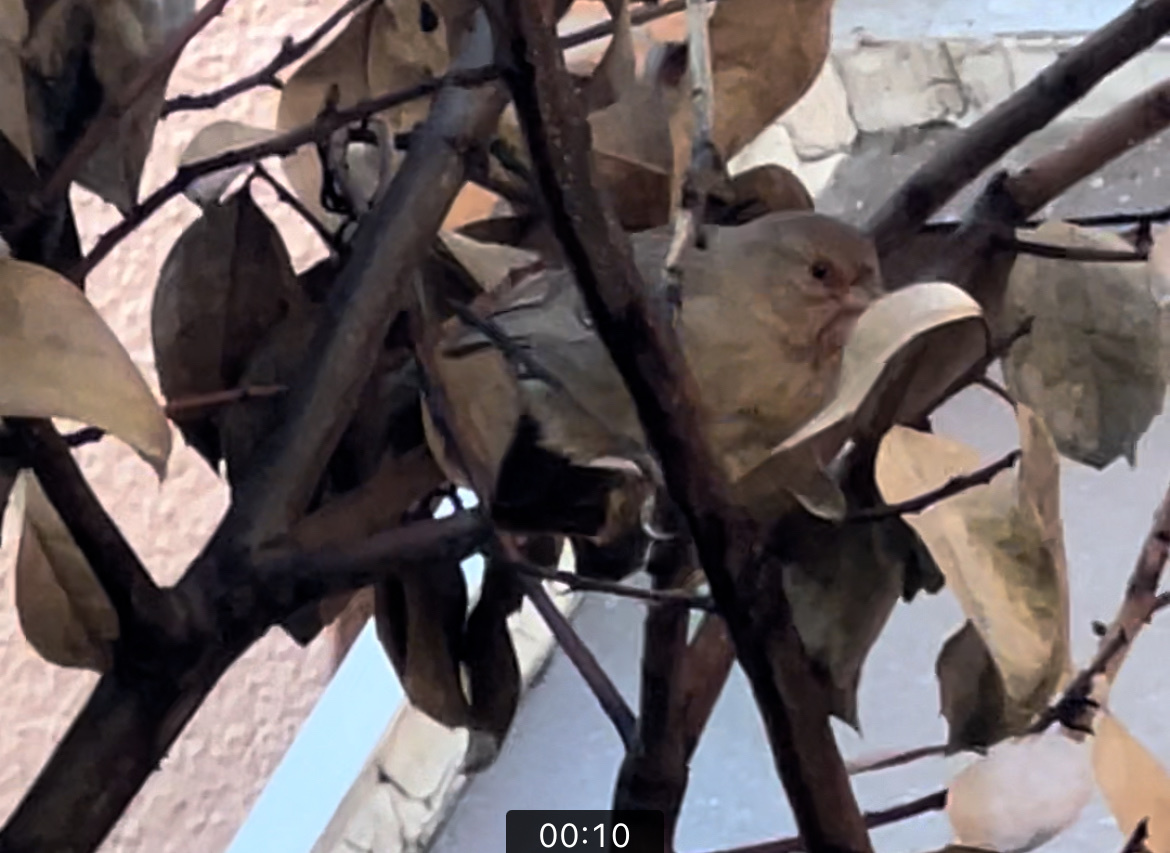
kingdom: Animalia
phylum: Chordata
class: Aves
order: Passeriformes
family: Passerellidae
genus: Melozone
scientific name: Melozone crissalis
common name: California towhee
